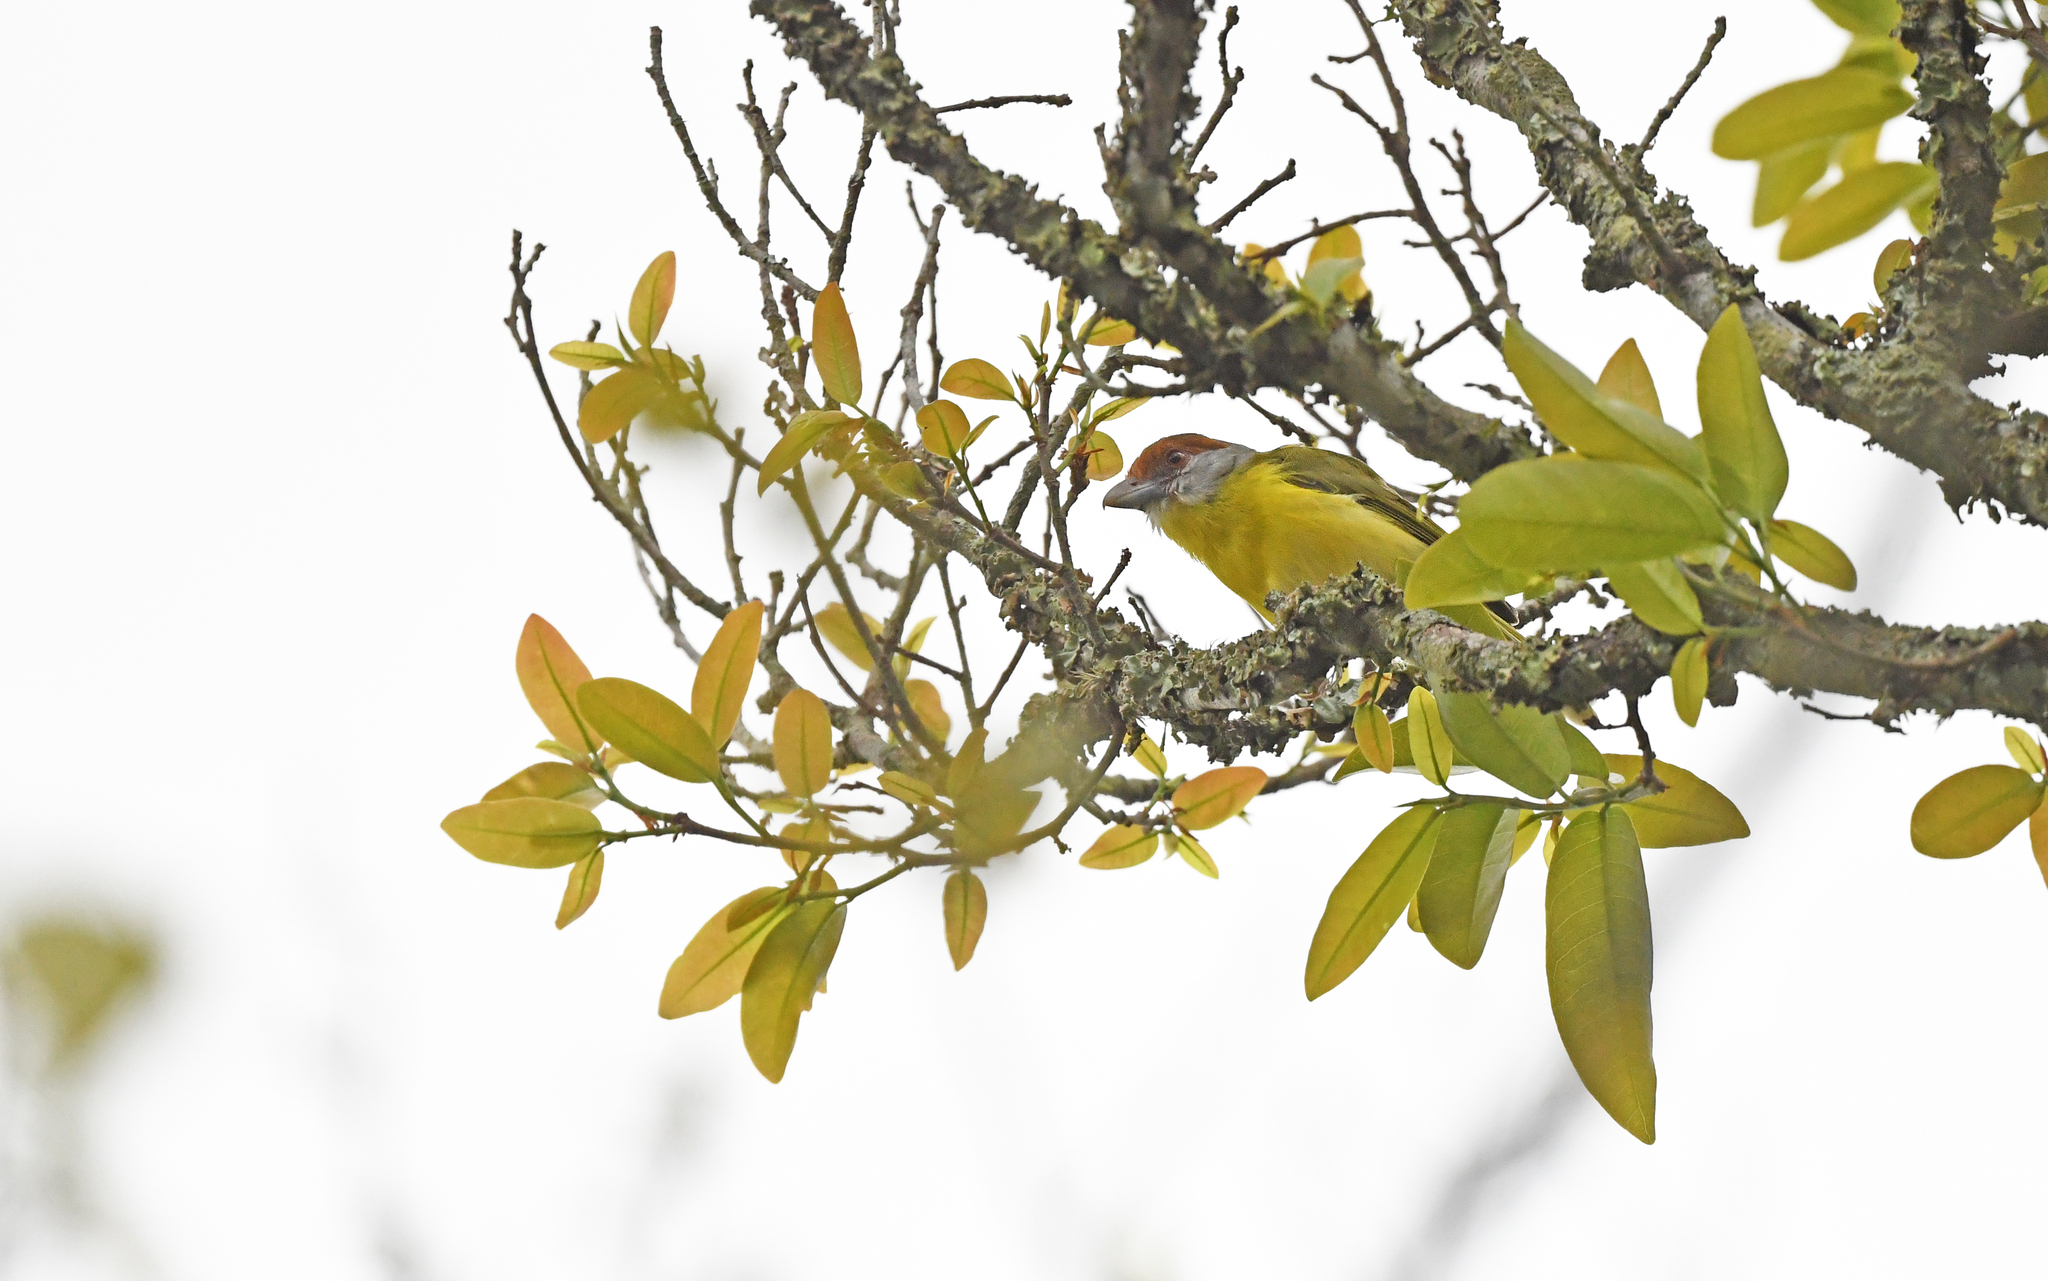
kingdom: Animalia
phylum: Chordata
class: Aves
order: Passeriformes
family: Vireonidae
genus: Cyclarhis
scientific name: Cyclarhis gujanensis
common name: Rufous-browed peppershrike
